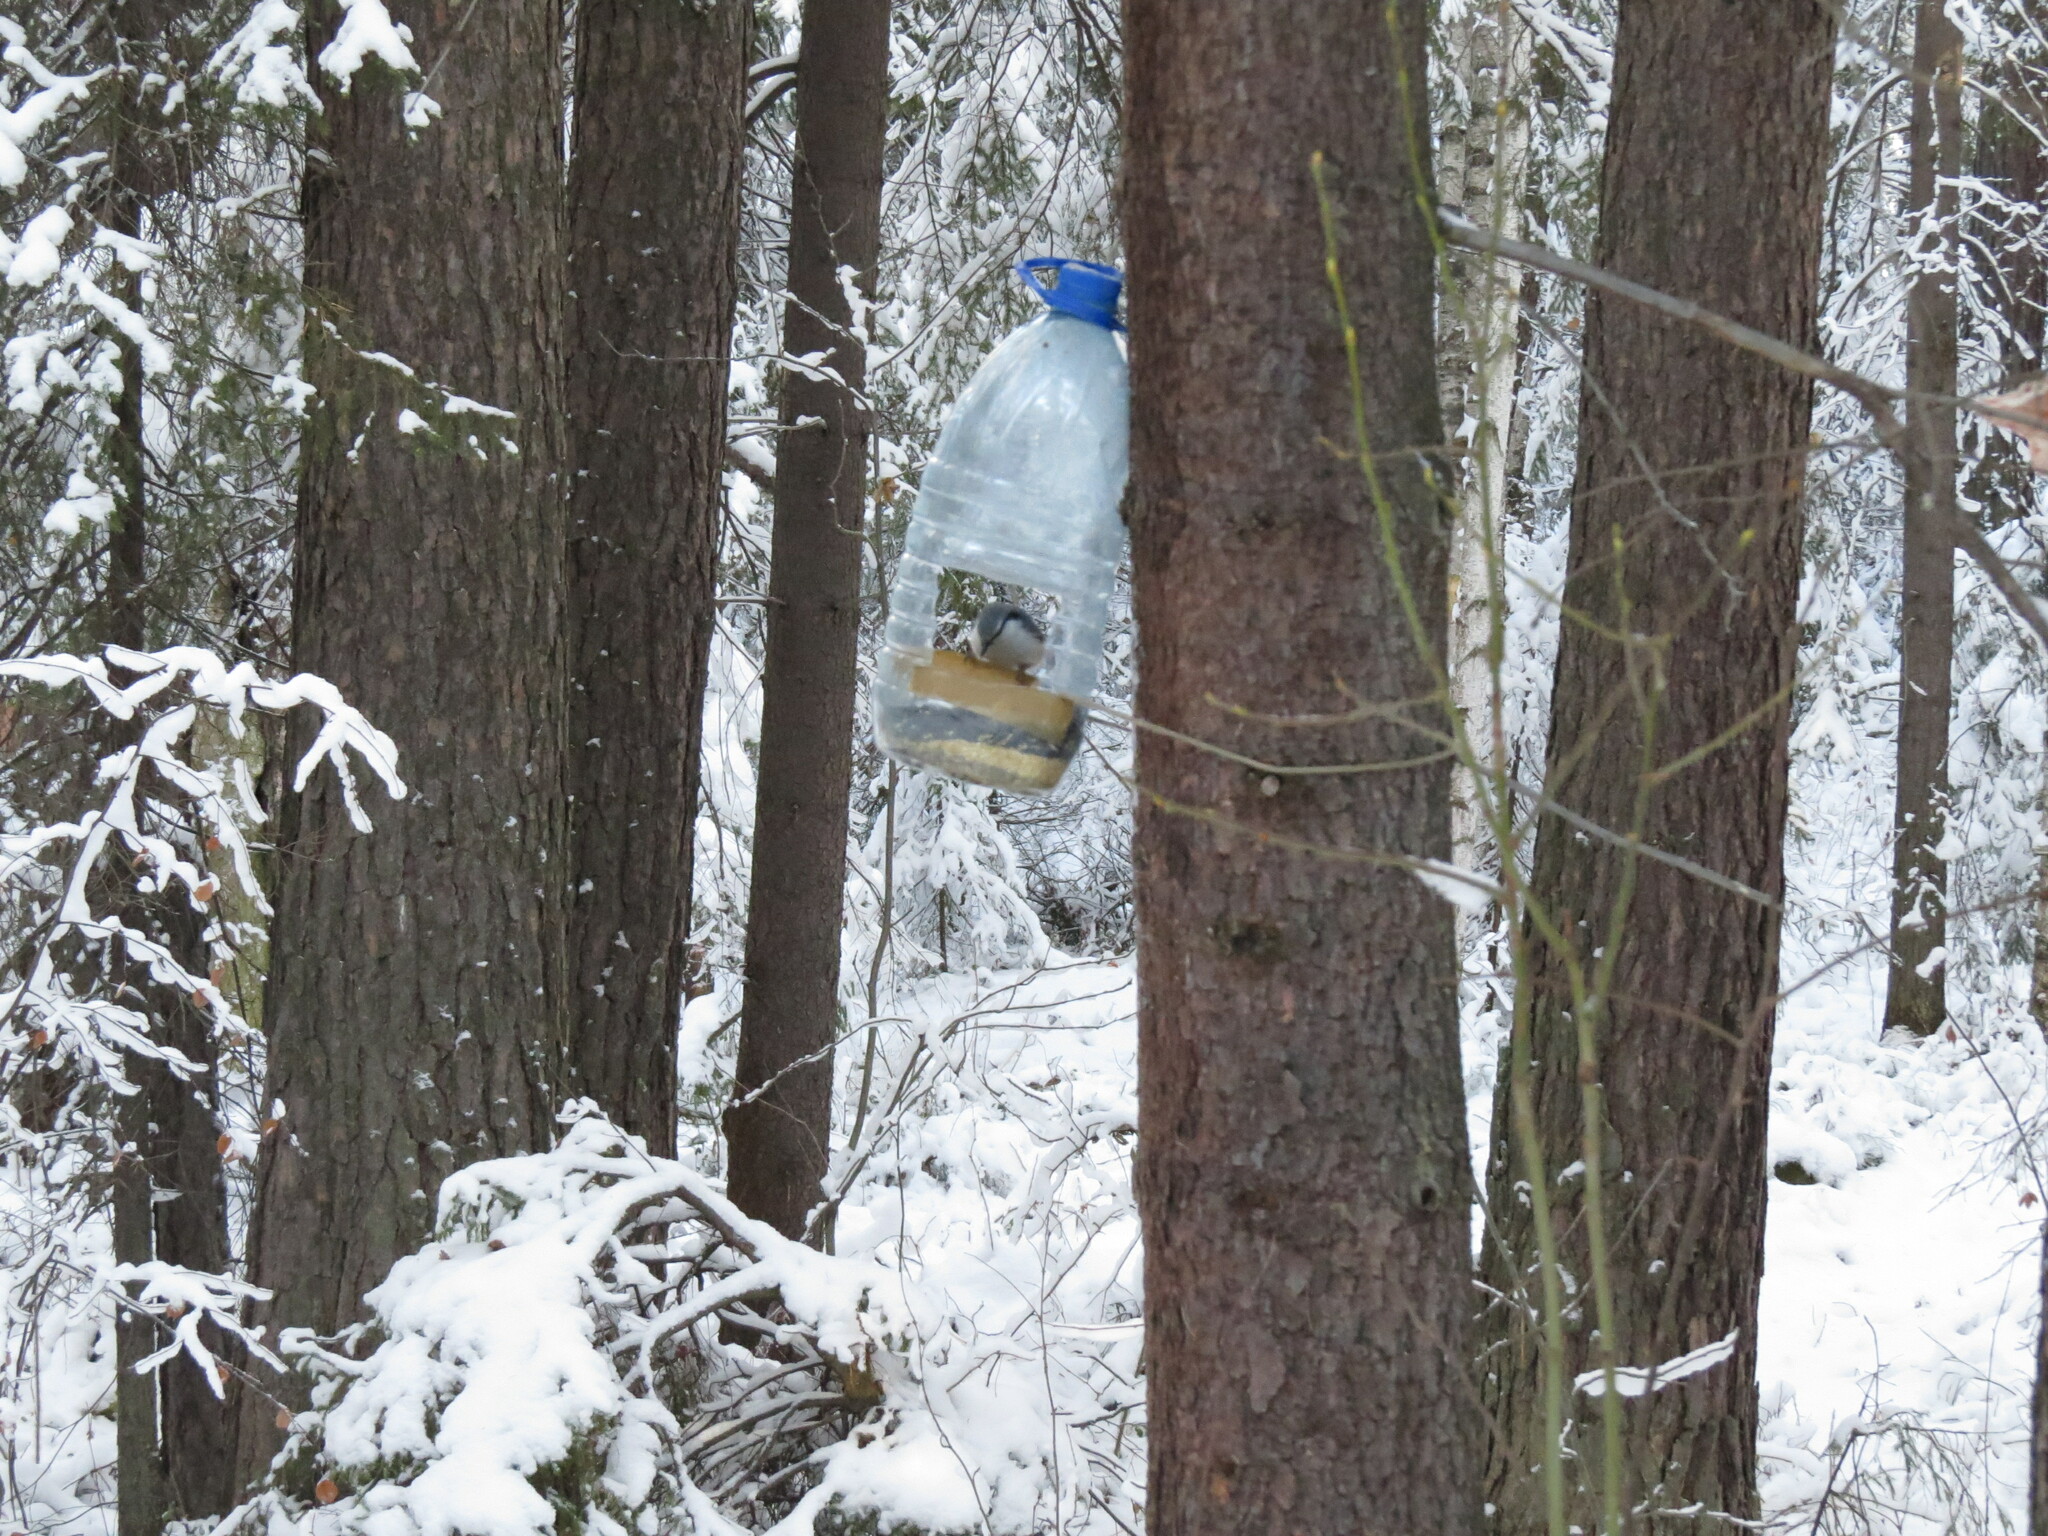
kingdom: Animalia
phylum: Chordata
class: Aves
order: Passeriformes
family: Sittidae
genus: Sitta
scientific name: Sitta europaea
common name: Eurasian nuthatch
